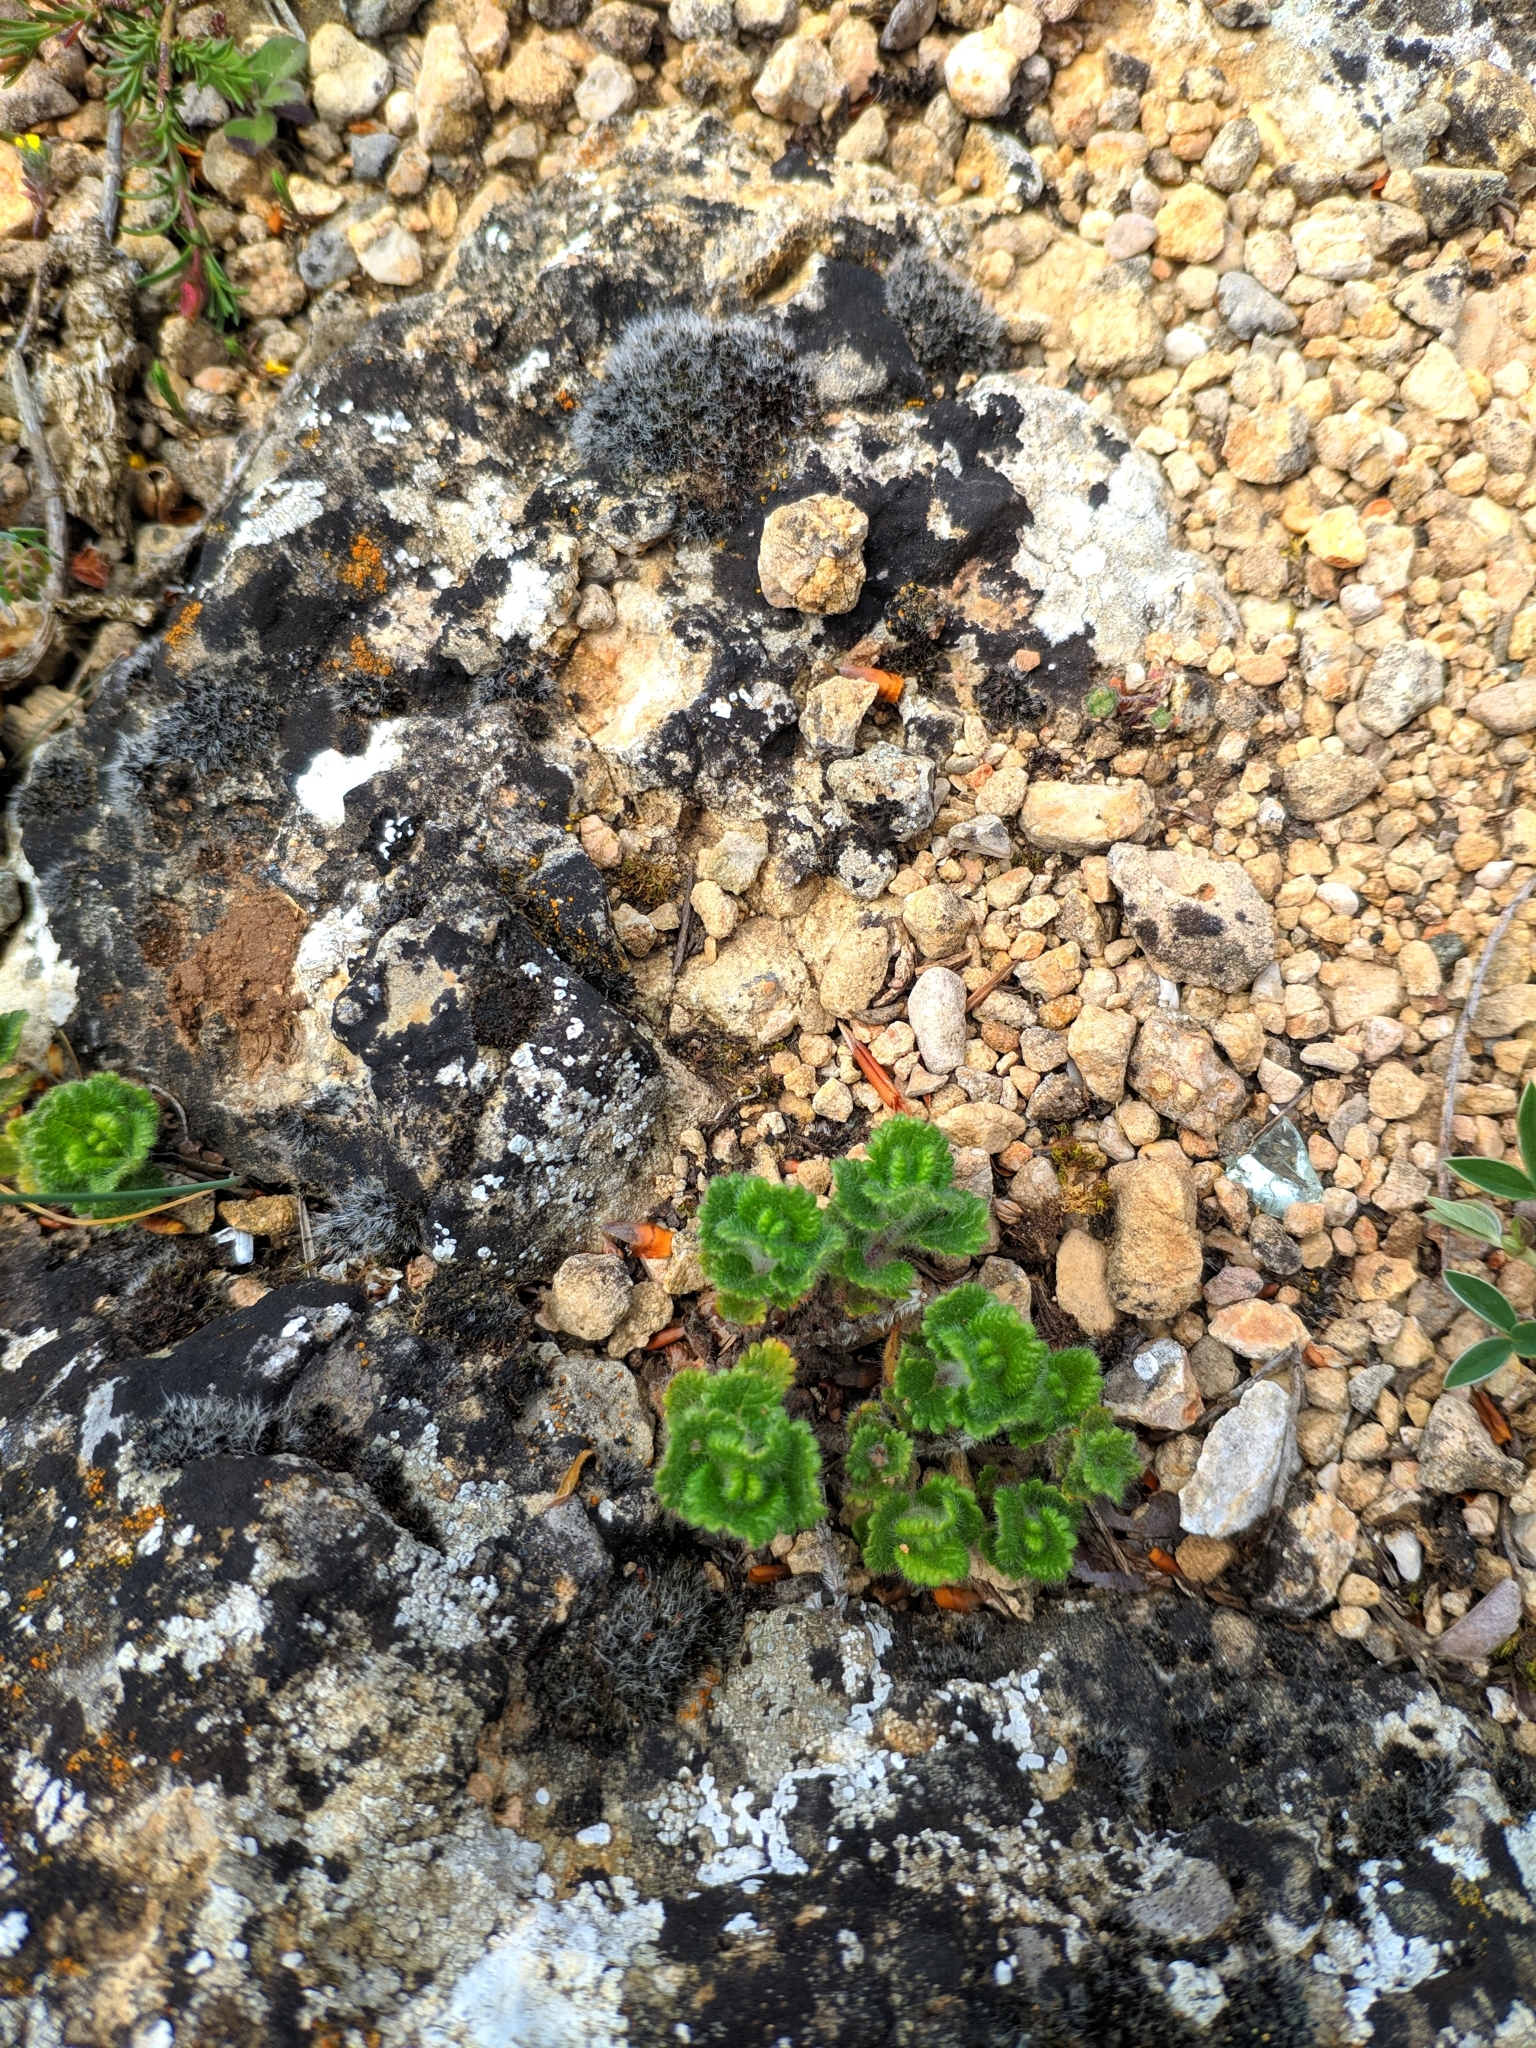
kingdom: Plantae
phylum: Tracheophyta
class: Magnoliopsida
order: Lamiales
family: Lamiaceae
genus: Teucrium
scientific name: Teucrium pyrenaicum
